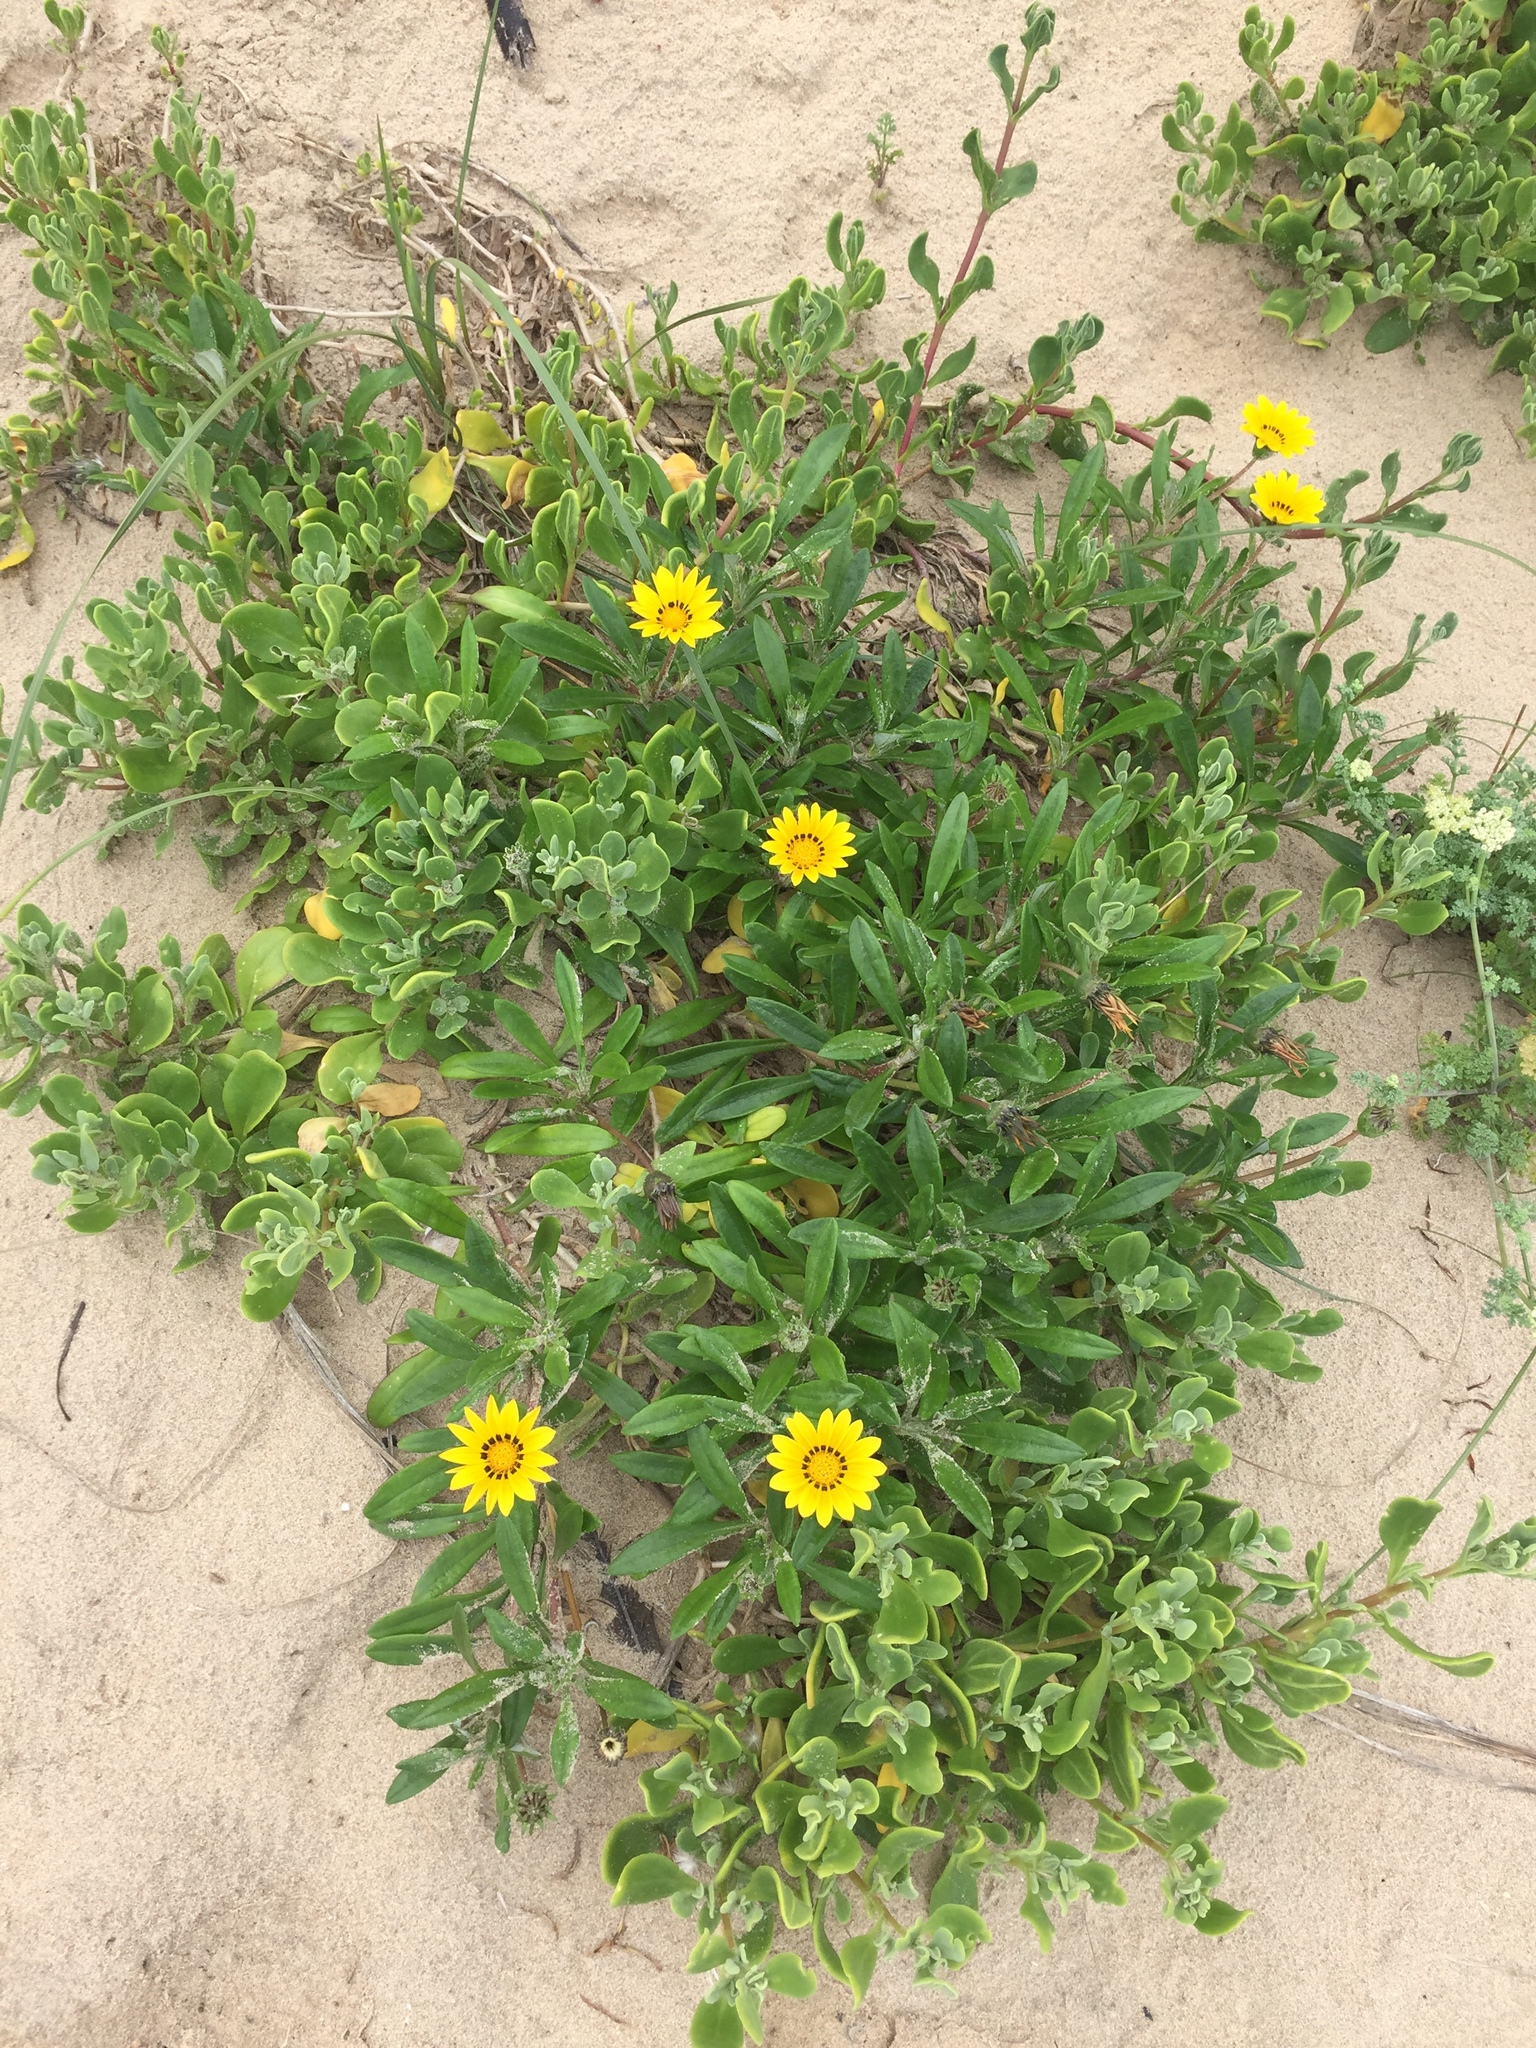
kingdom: Plantae
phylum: Tracheophyta
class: Magnoliopsida
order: Asterales
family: Asteraceae
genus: Gazania
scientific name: Gazania rigens
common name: Treasureflower
